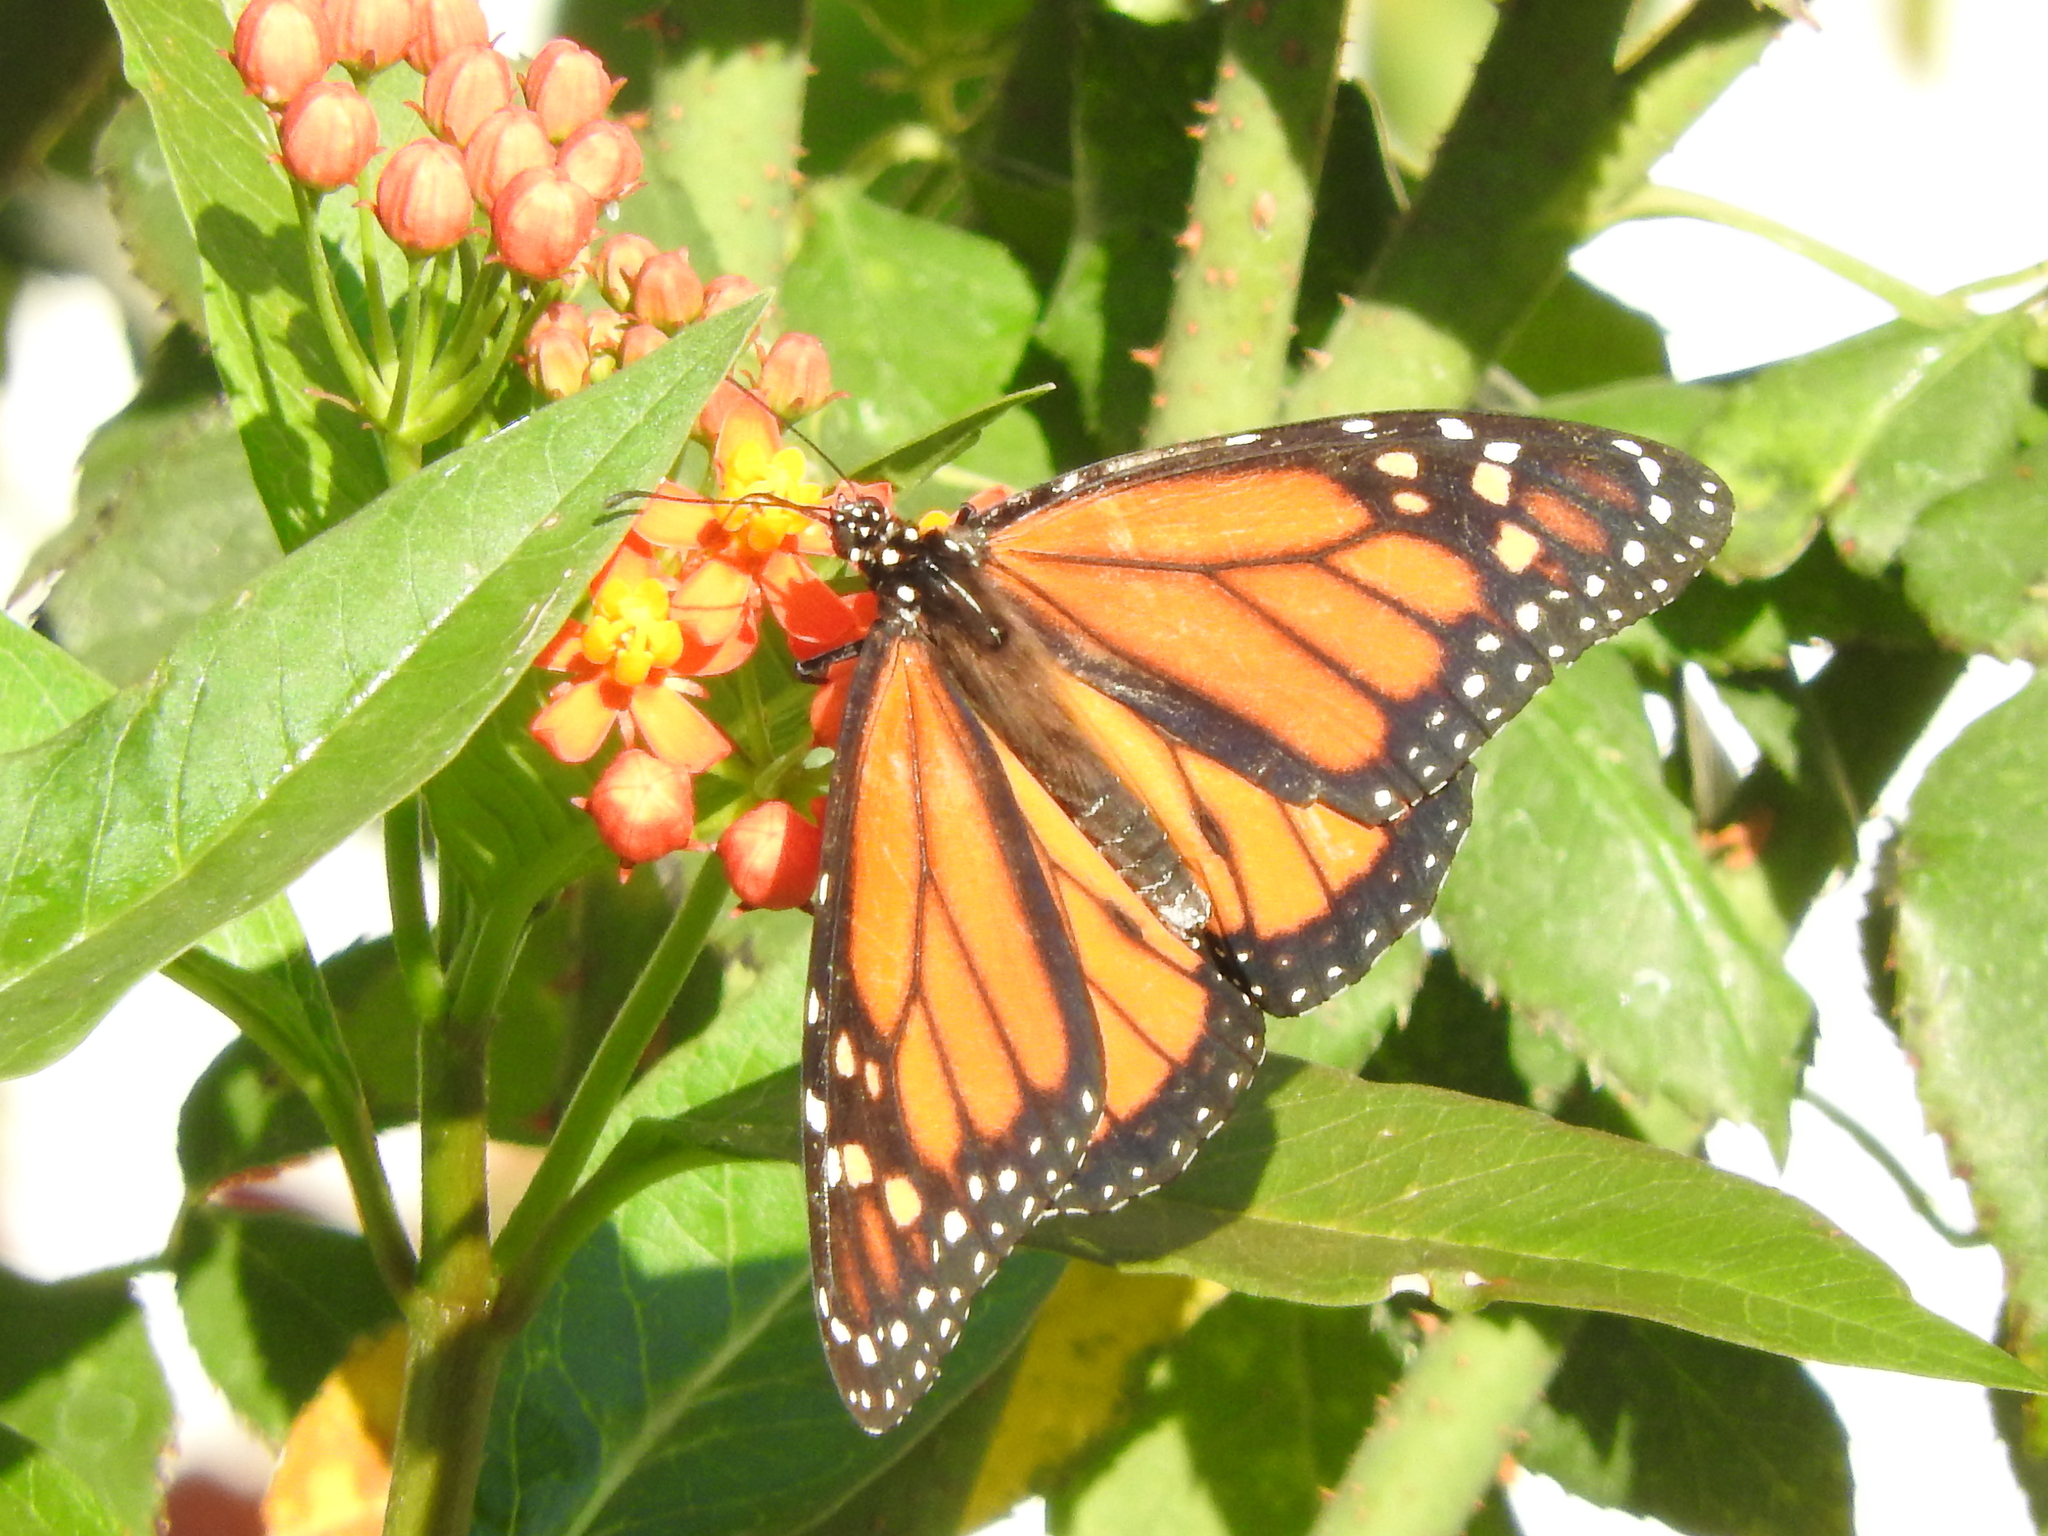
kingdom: Animalia
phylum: Arthropoda
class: Insecta
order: Lepidoptera
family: Nymphalidae
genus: Danaus
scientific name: Danaus plexippus
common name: Monarch
